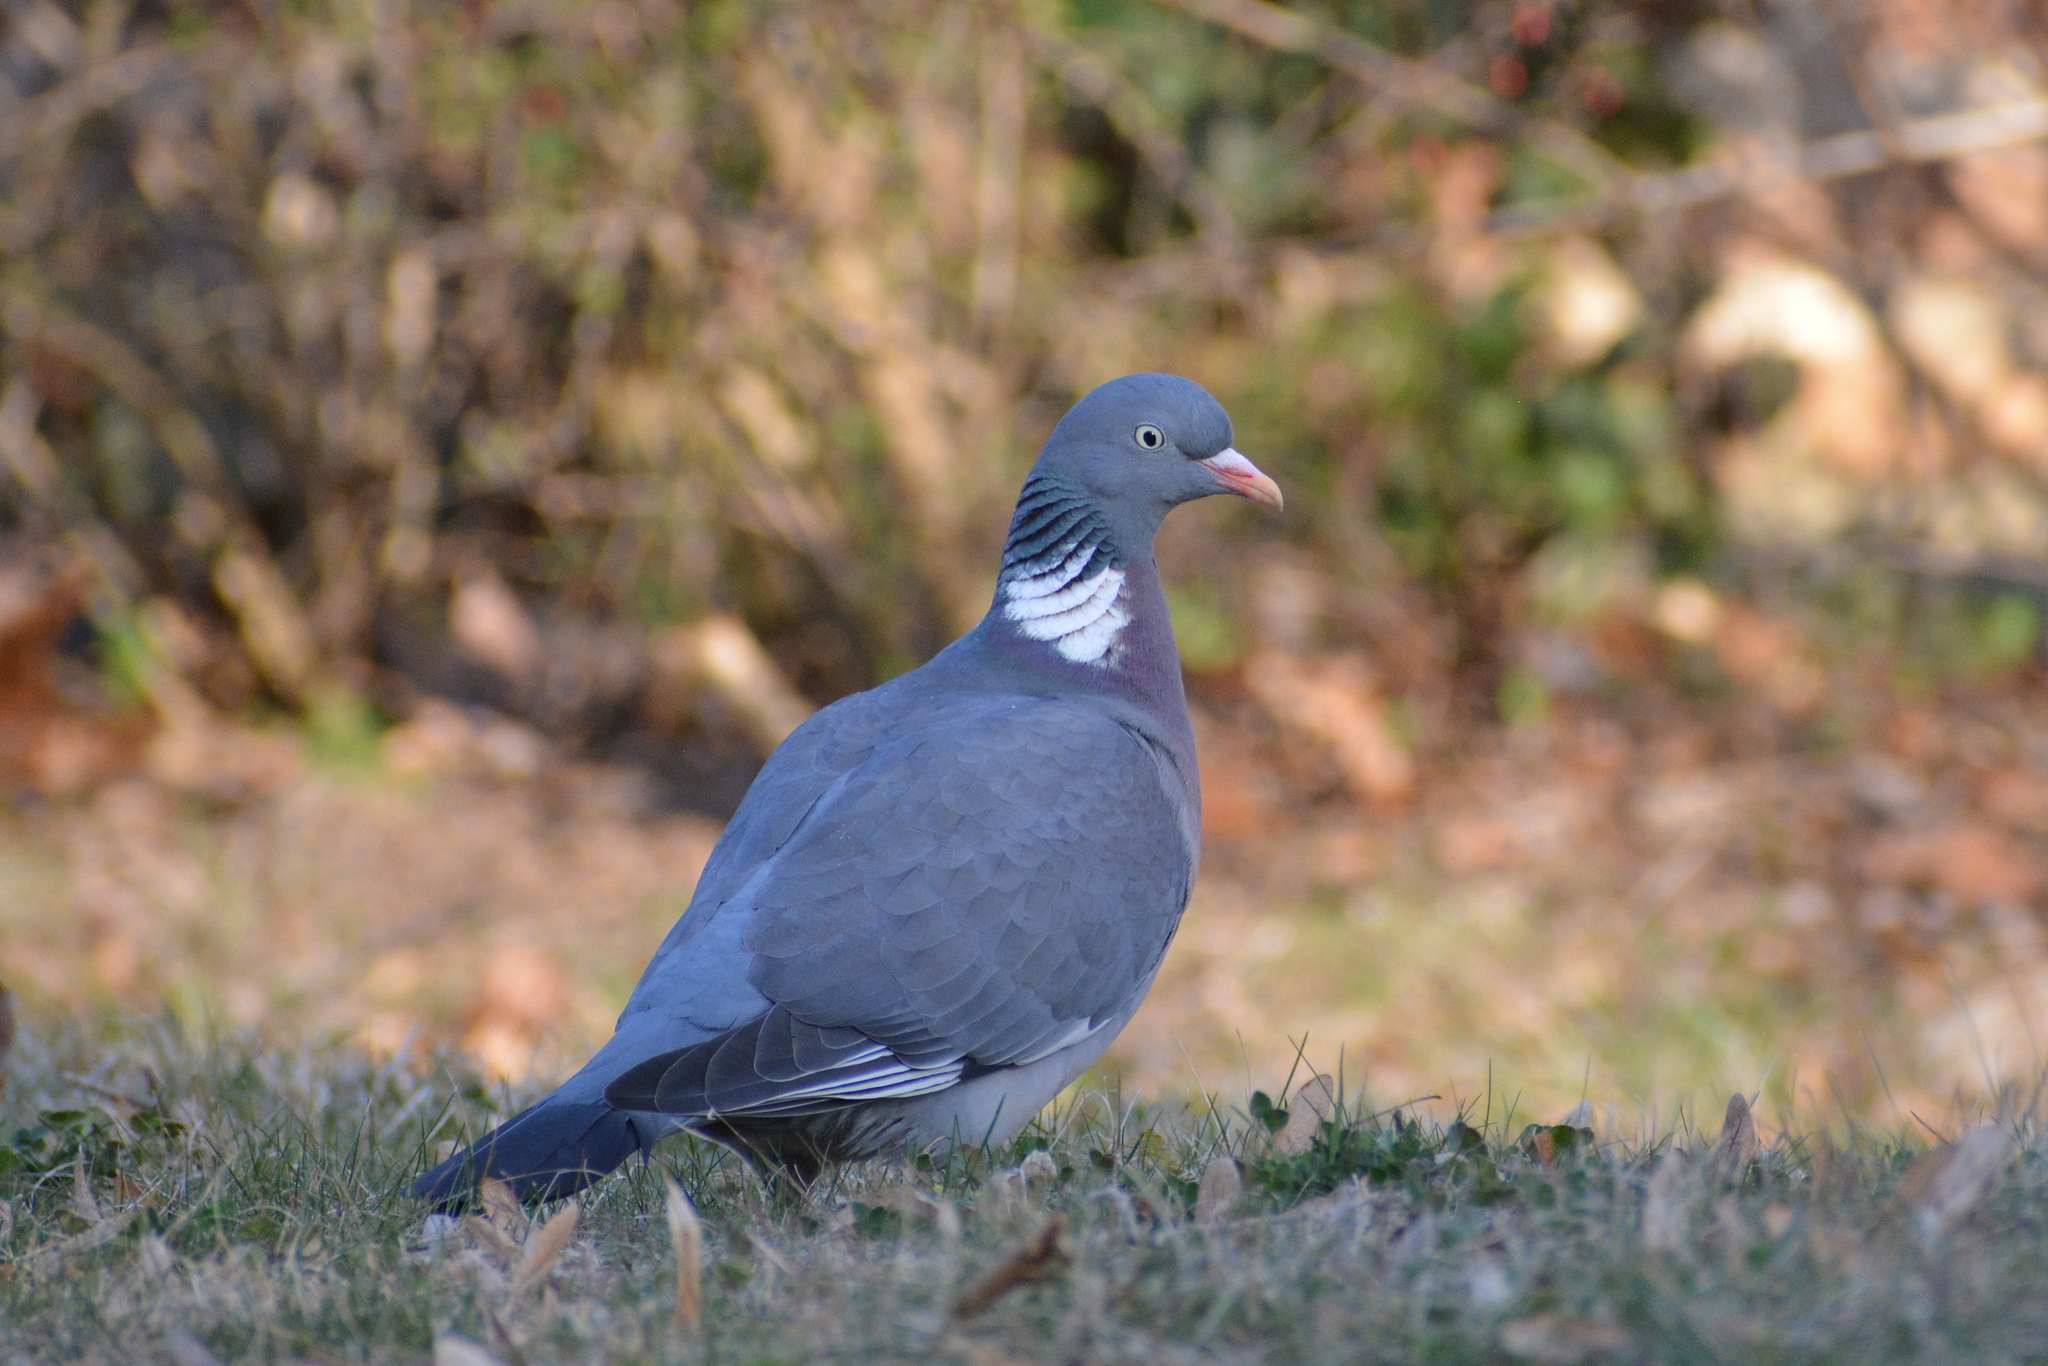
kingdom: Animalia
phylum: Chordata
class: Aves
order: Columbiformes
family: Columbidae
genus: Columba
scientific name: Columba palumbus
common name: Common wood pigeon
